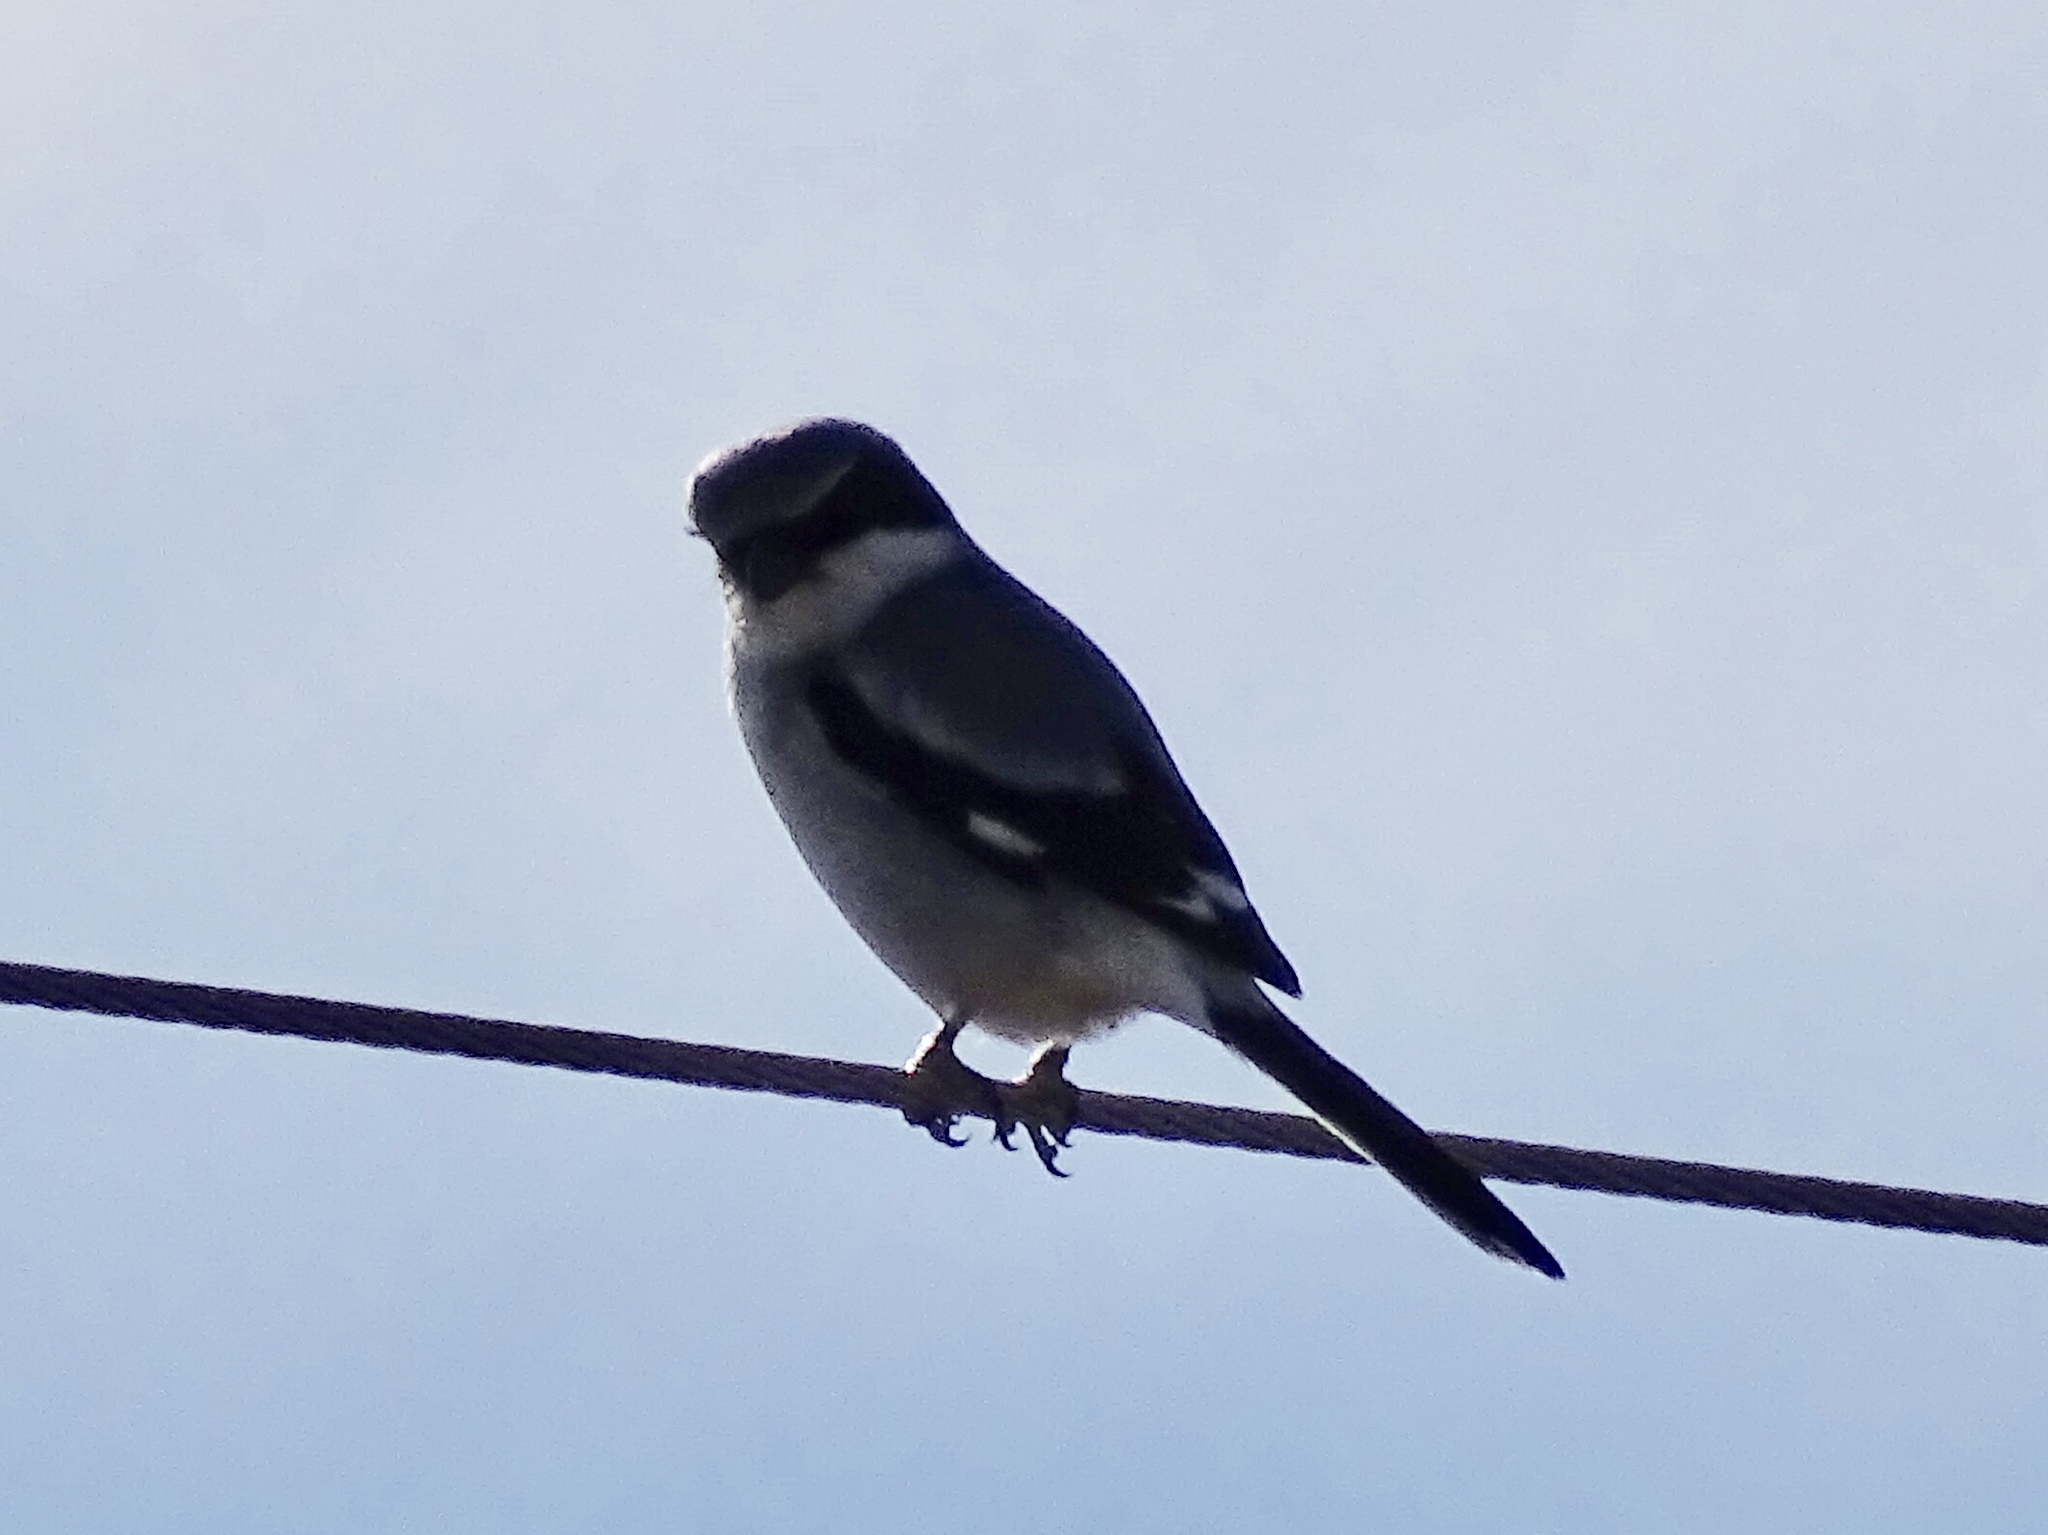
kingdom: Animalia
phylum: Chordata
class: Aves
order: Passeriformes
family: Laniidae
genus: Lanius
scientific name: Lanius ludovicianus
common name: Loggerhead shrike
